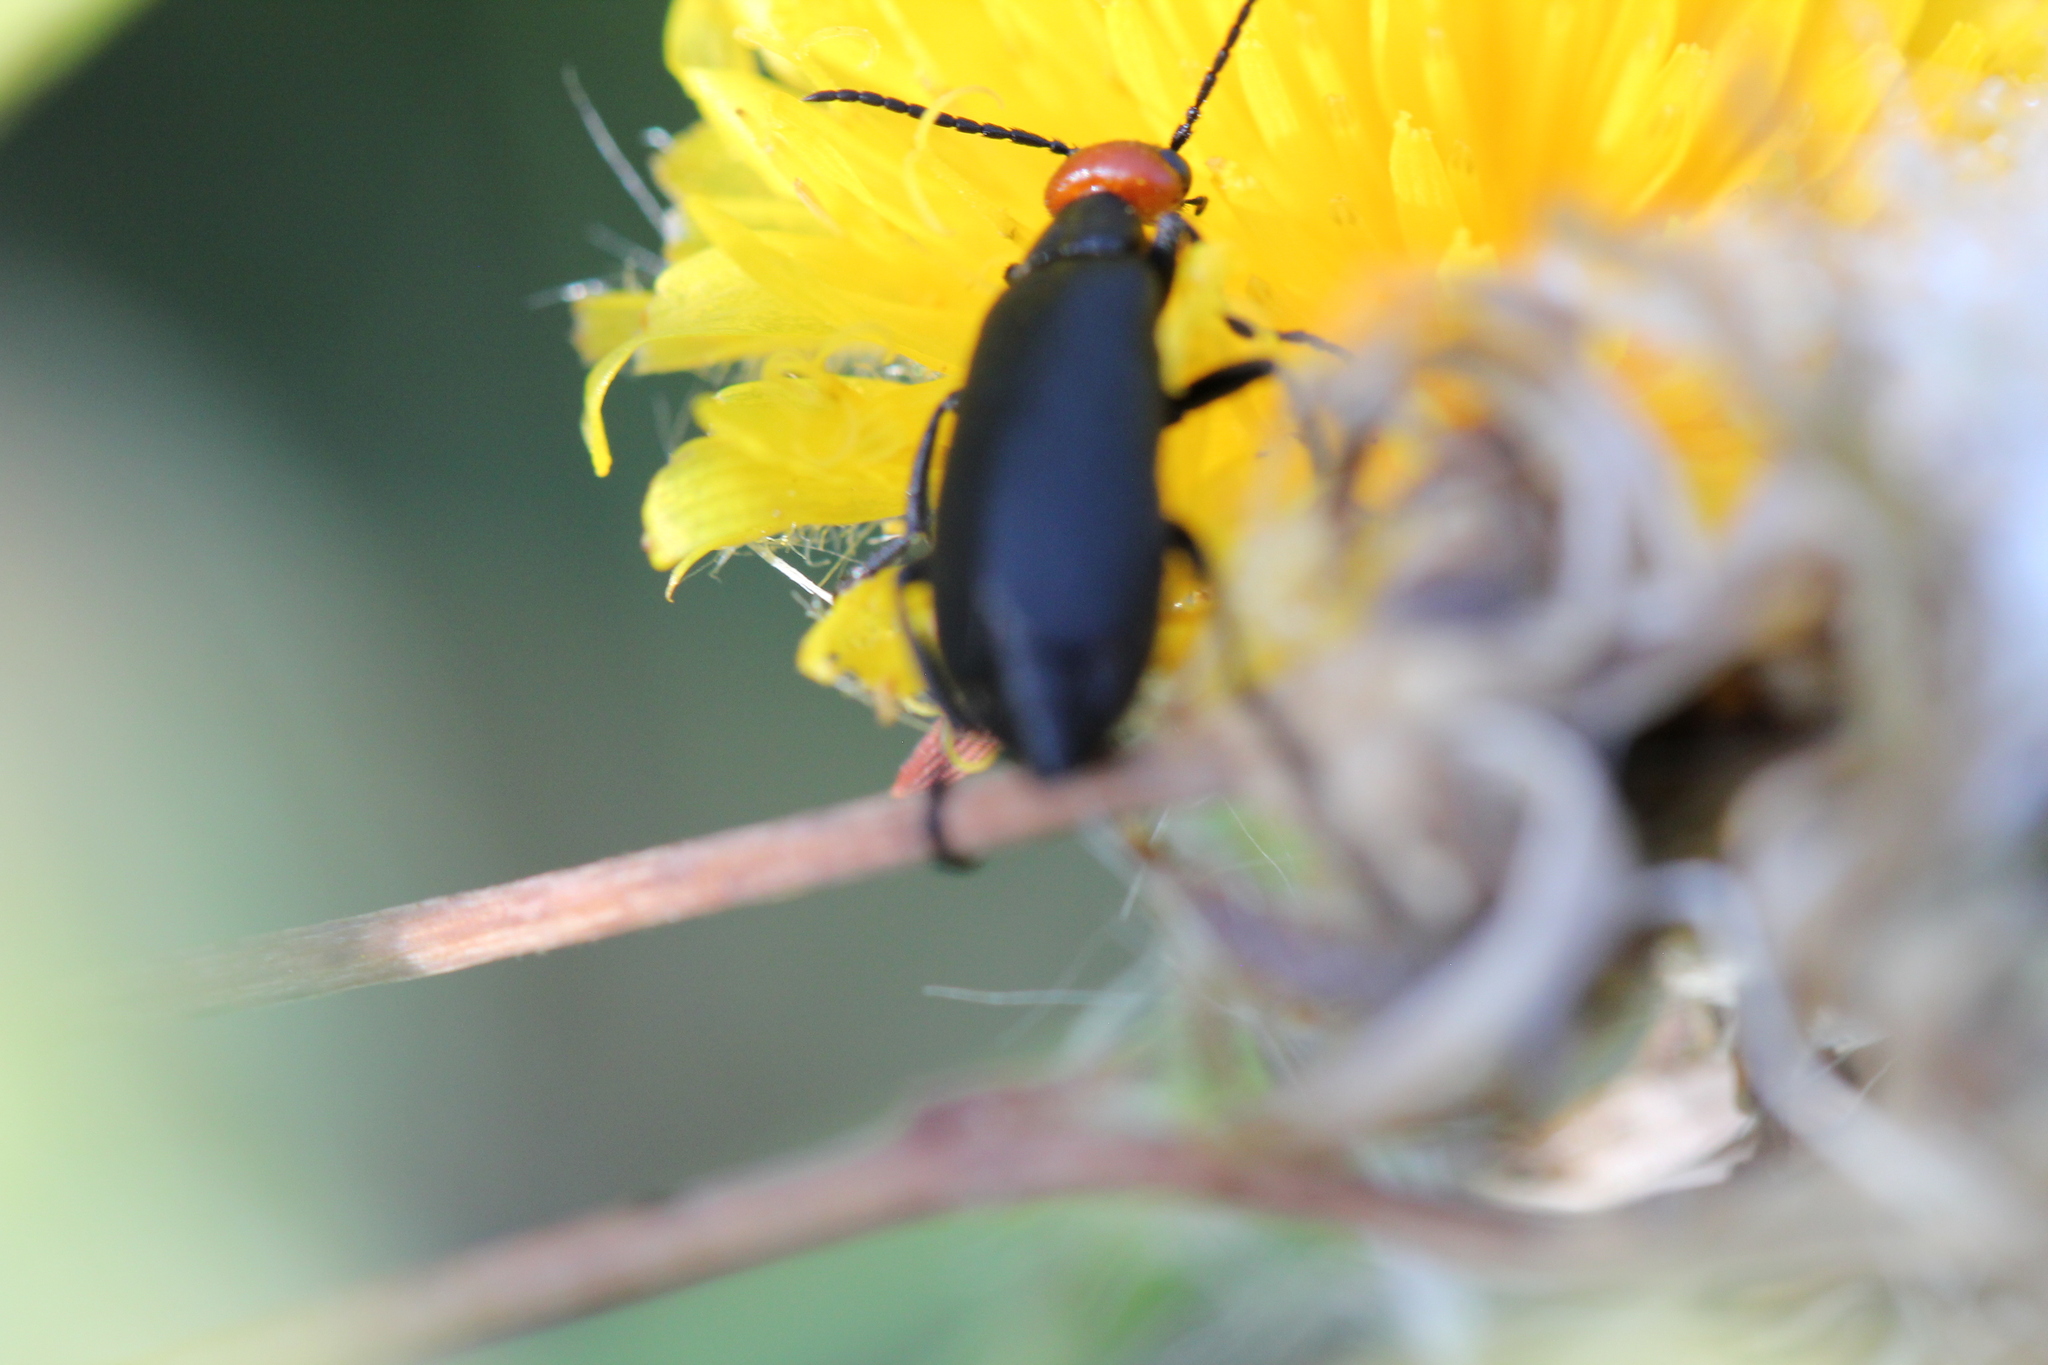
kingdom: Animalia
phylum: Arthropoda
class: Insecta
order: Coleoptera
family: Meloidae
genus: Epicauta
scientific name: Epicauta atrata
